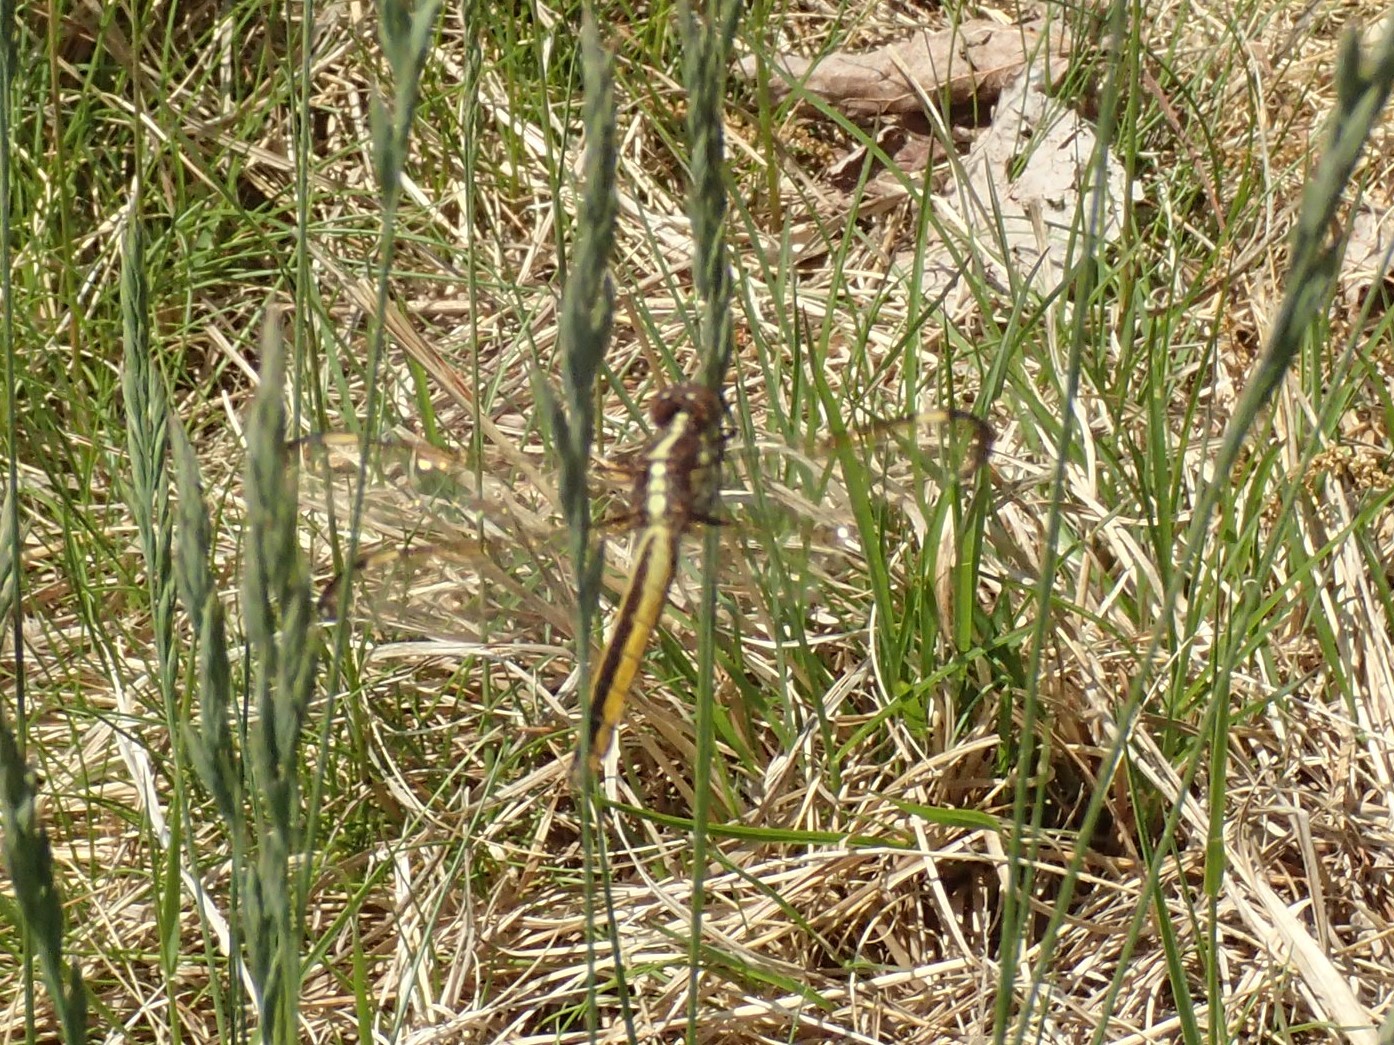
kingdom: Animalia
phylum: Arthropoda
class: Insecta
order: Odonata
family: Libellulidae
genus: Libellula
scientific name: Libellula cyanea
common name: Spangled skimmer
